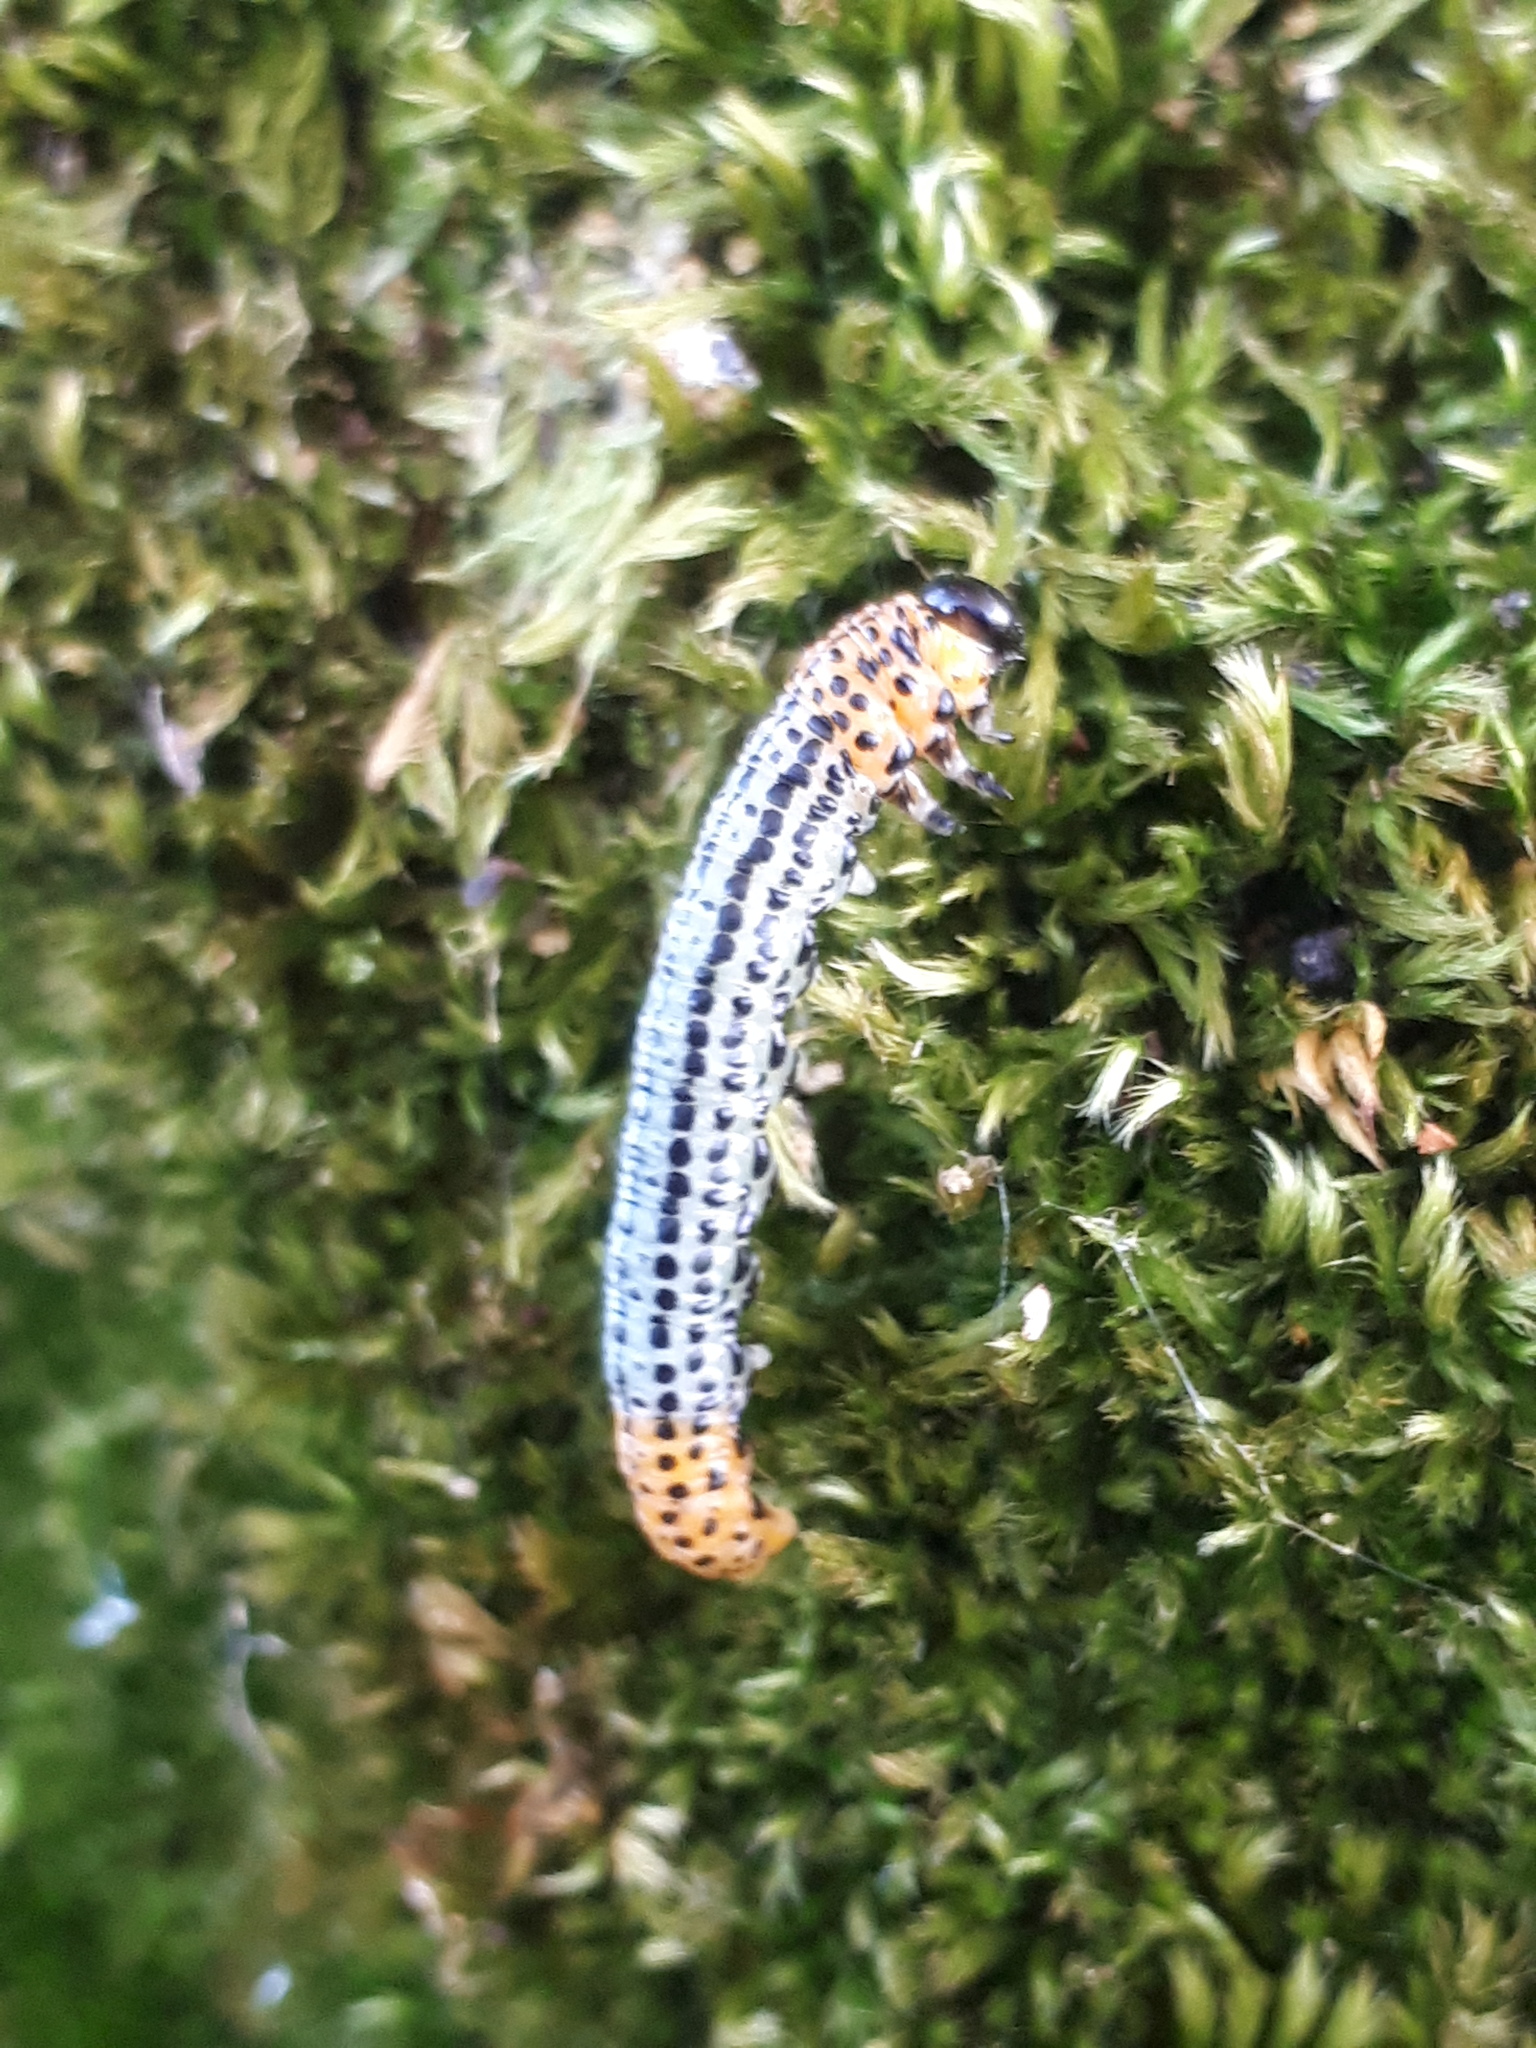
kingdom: Animalia
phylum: Arthropoda
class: Insecta
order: Hymenoptera
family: Tenthredinidae
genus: Nematus
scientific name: Nematus salicis
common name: Willow sawfly
